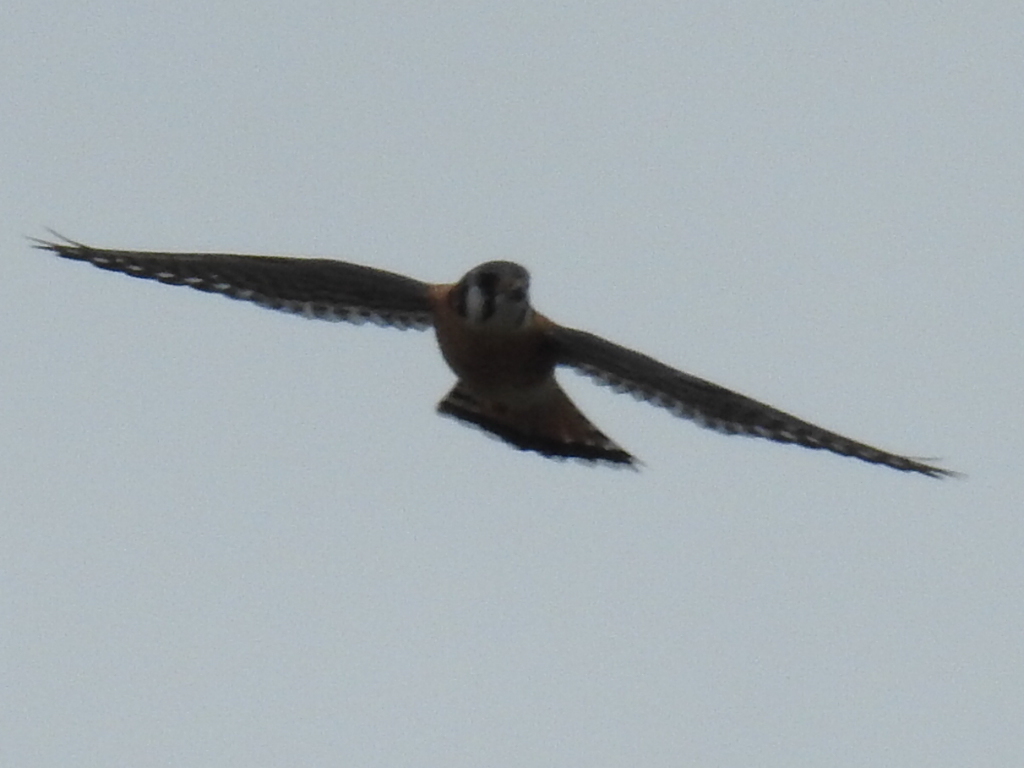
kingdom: Animalia
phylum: Chordata
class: Aves
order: Falconiformes
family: Falconidae
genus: Falco
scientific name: Falco sparverius
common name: American kestrel
